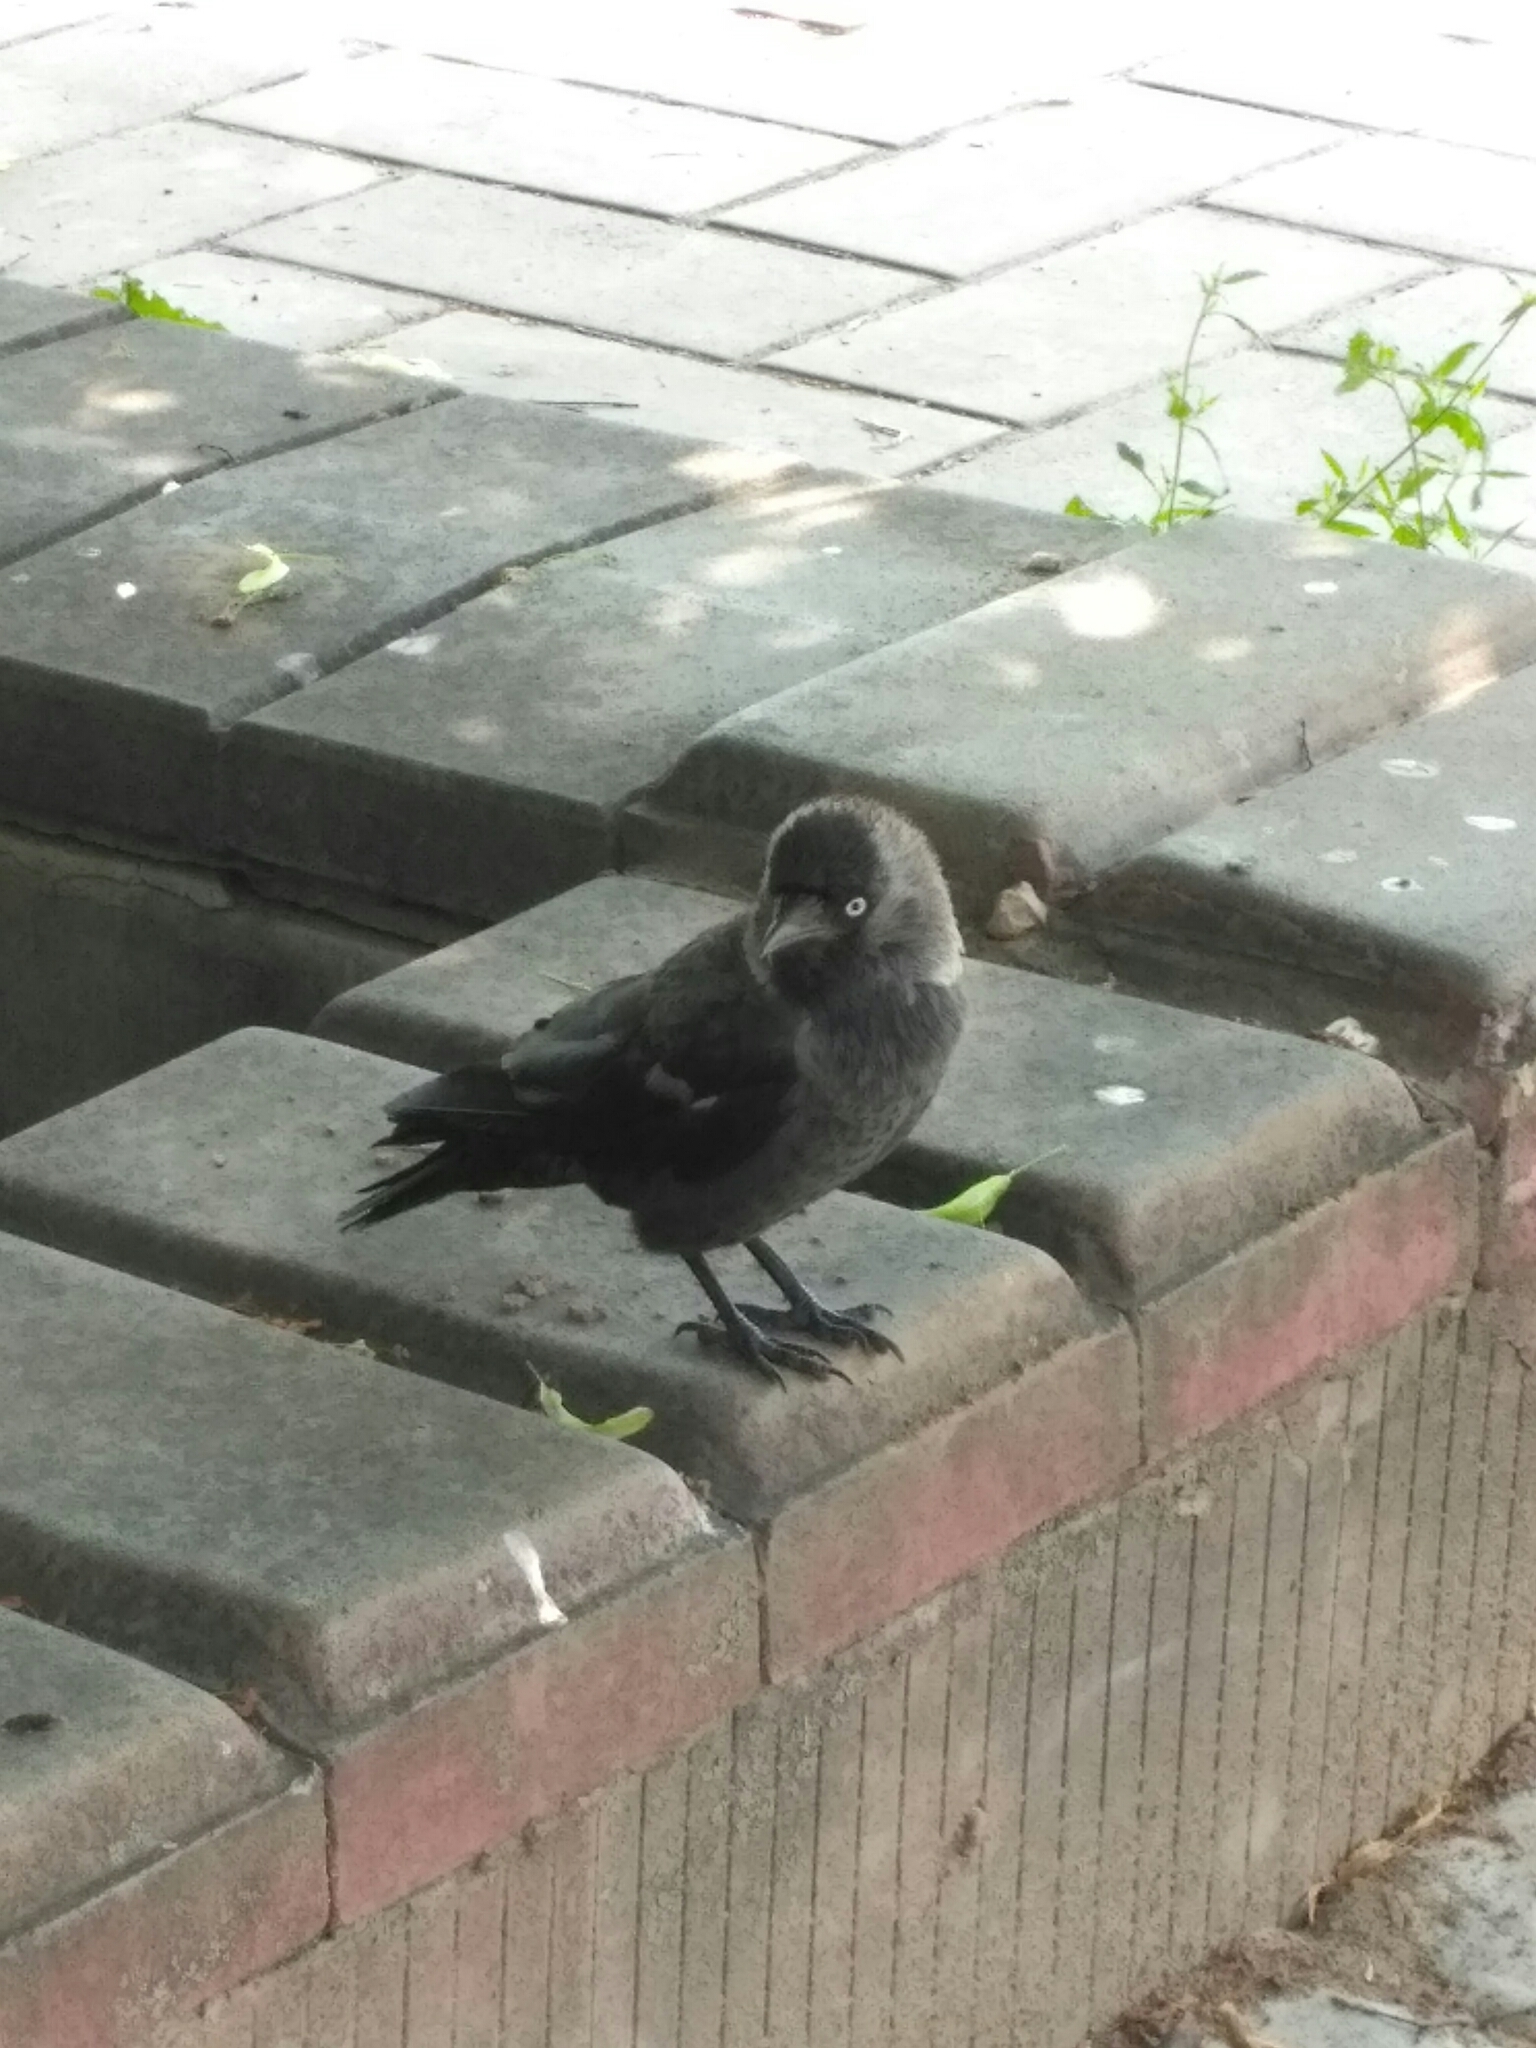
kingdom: Animalia
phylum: Chordata
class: Aves
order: Passeriformes
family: Corvidae
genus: Coloeus
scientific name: Coloeus monedula
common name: Western jackdaw
